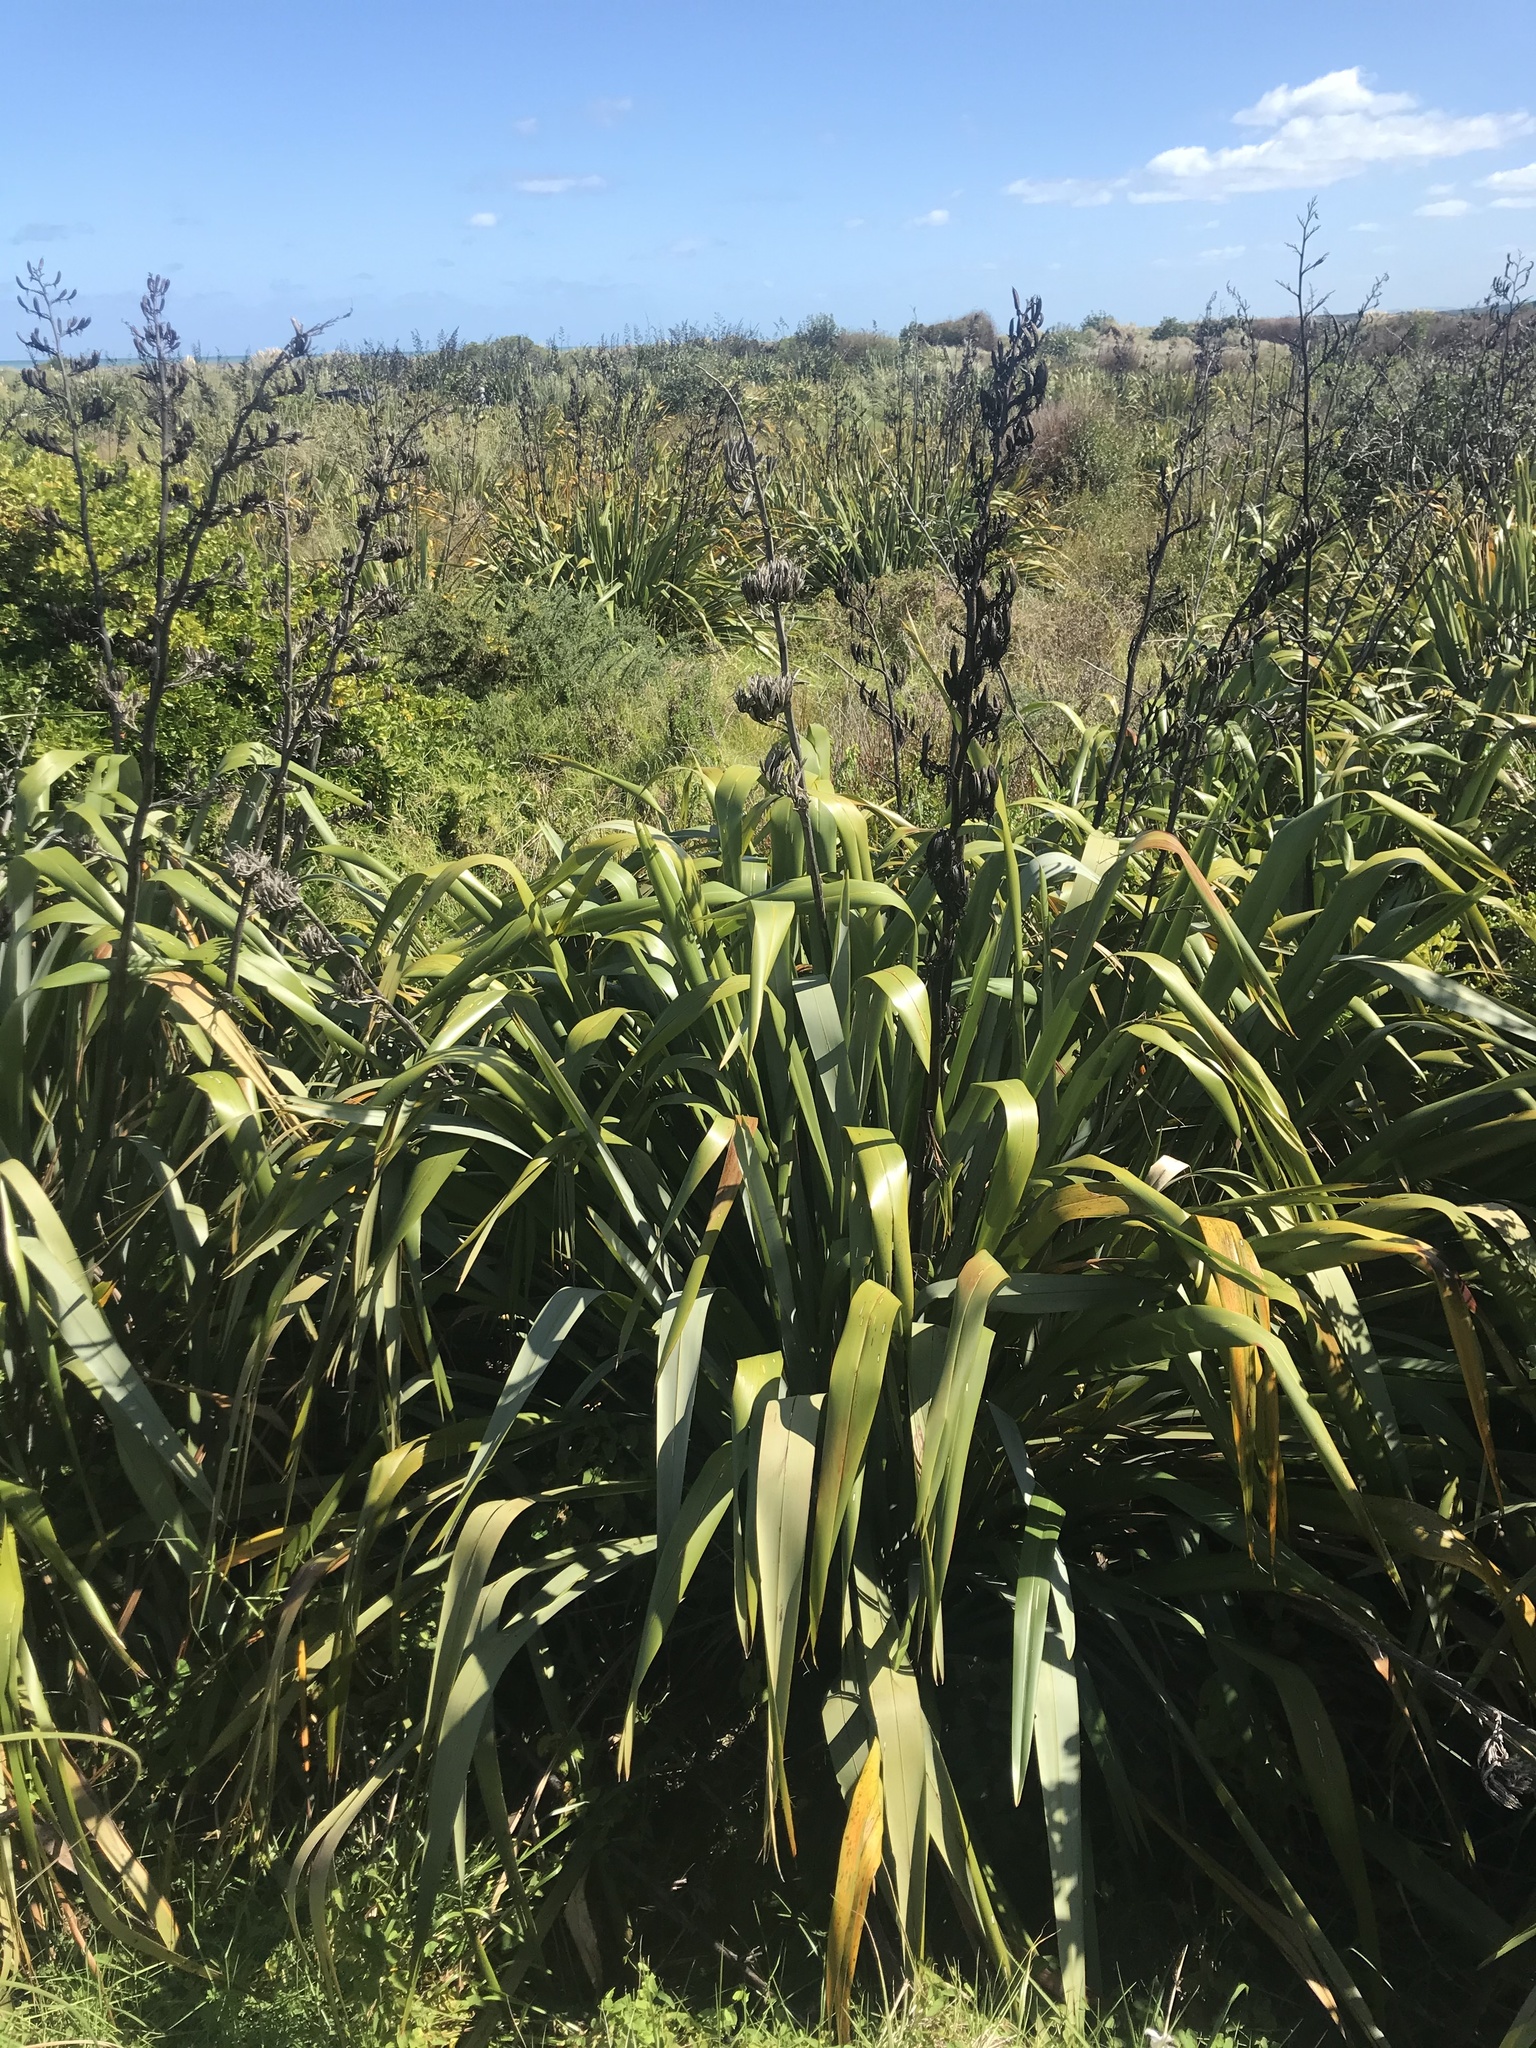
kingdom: Plantae
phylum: Tracheophyta
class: Liliopsida
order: Asparagales
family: Asphodelaceae
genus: Phormium
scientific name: Phormium tenax
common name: New zealand flax
